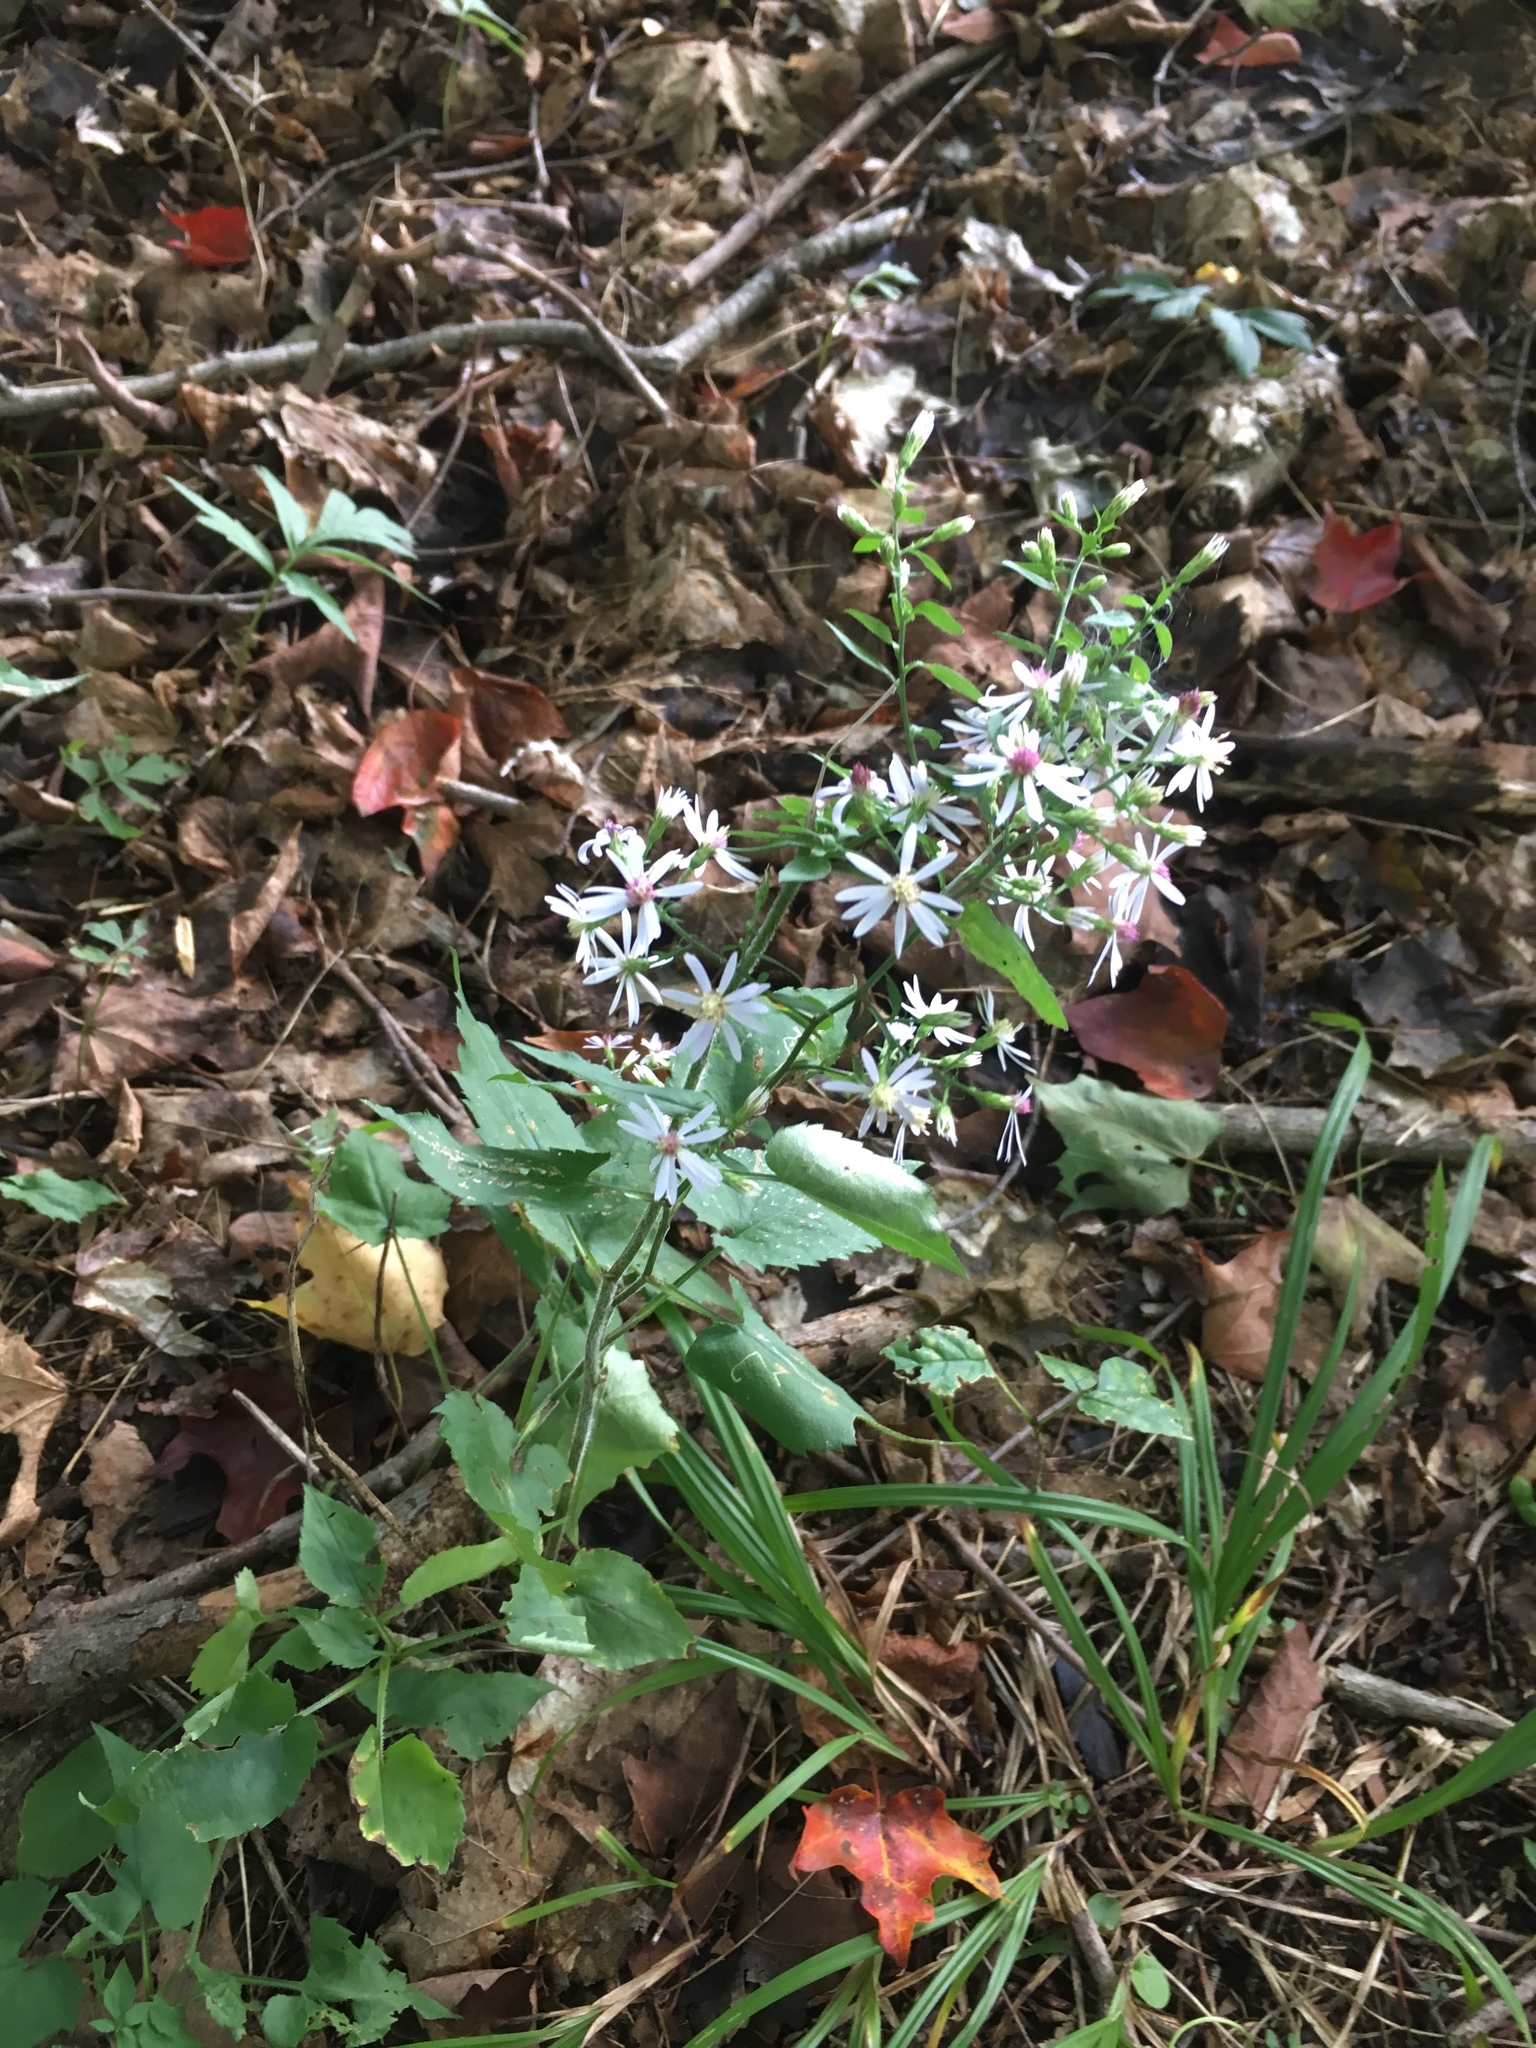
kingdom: Plantae
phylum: Tracheophyta
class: Magnoliopsida
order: Asterales
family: Asteraceae
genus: Symphyotrichum
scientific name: Symphyotrichum cordifolium
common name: Beeweed
